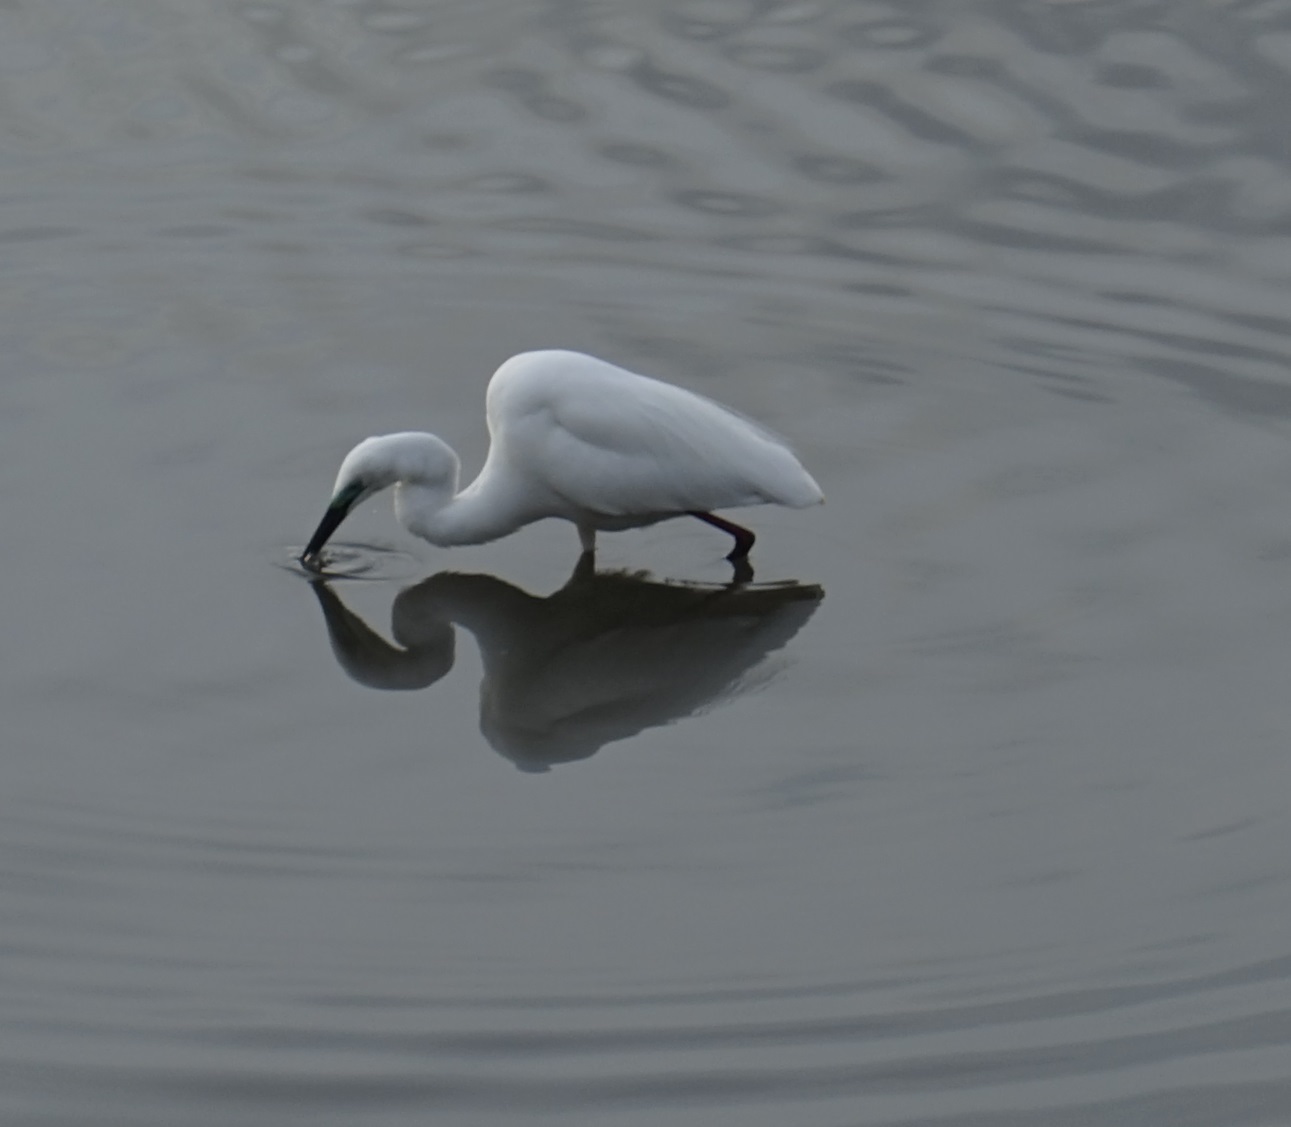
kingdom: Animalia
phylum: Chordata
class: Aves
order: Pelecaniformes
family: Ardeidae
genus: Ardea
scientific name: Ardea modesta
